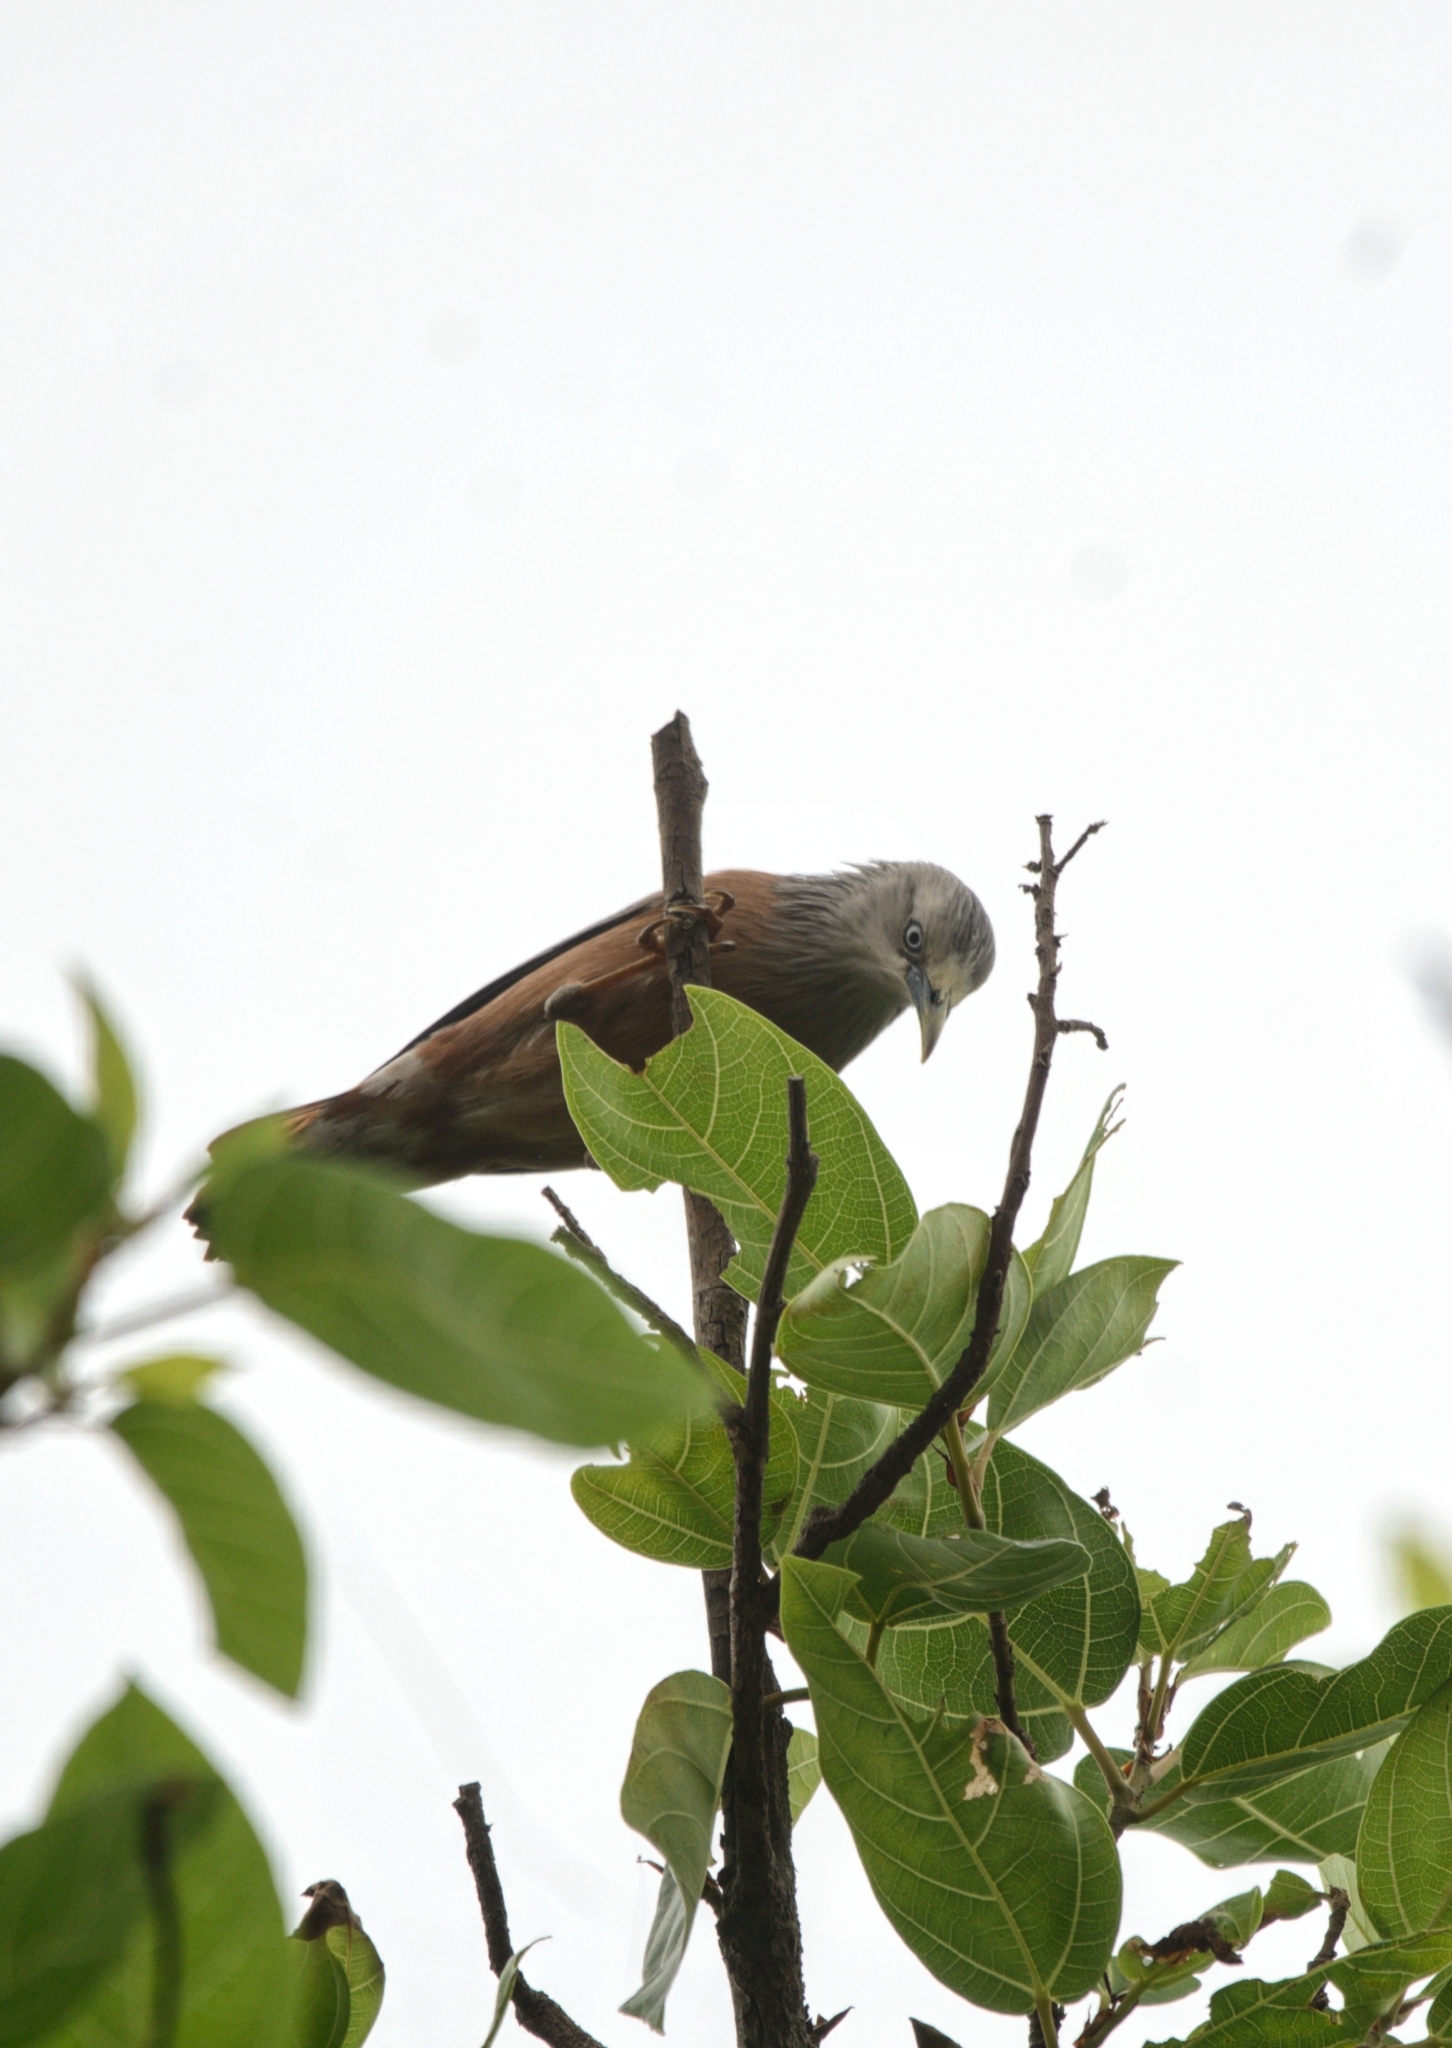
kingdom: Animalia
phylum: Chordata
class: Aves
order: Passeriformes
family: Sturnidae
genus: Sturnia
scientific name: Sturnia malabarica
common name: Chestnut-tailed starling
